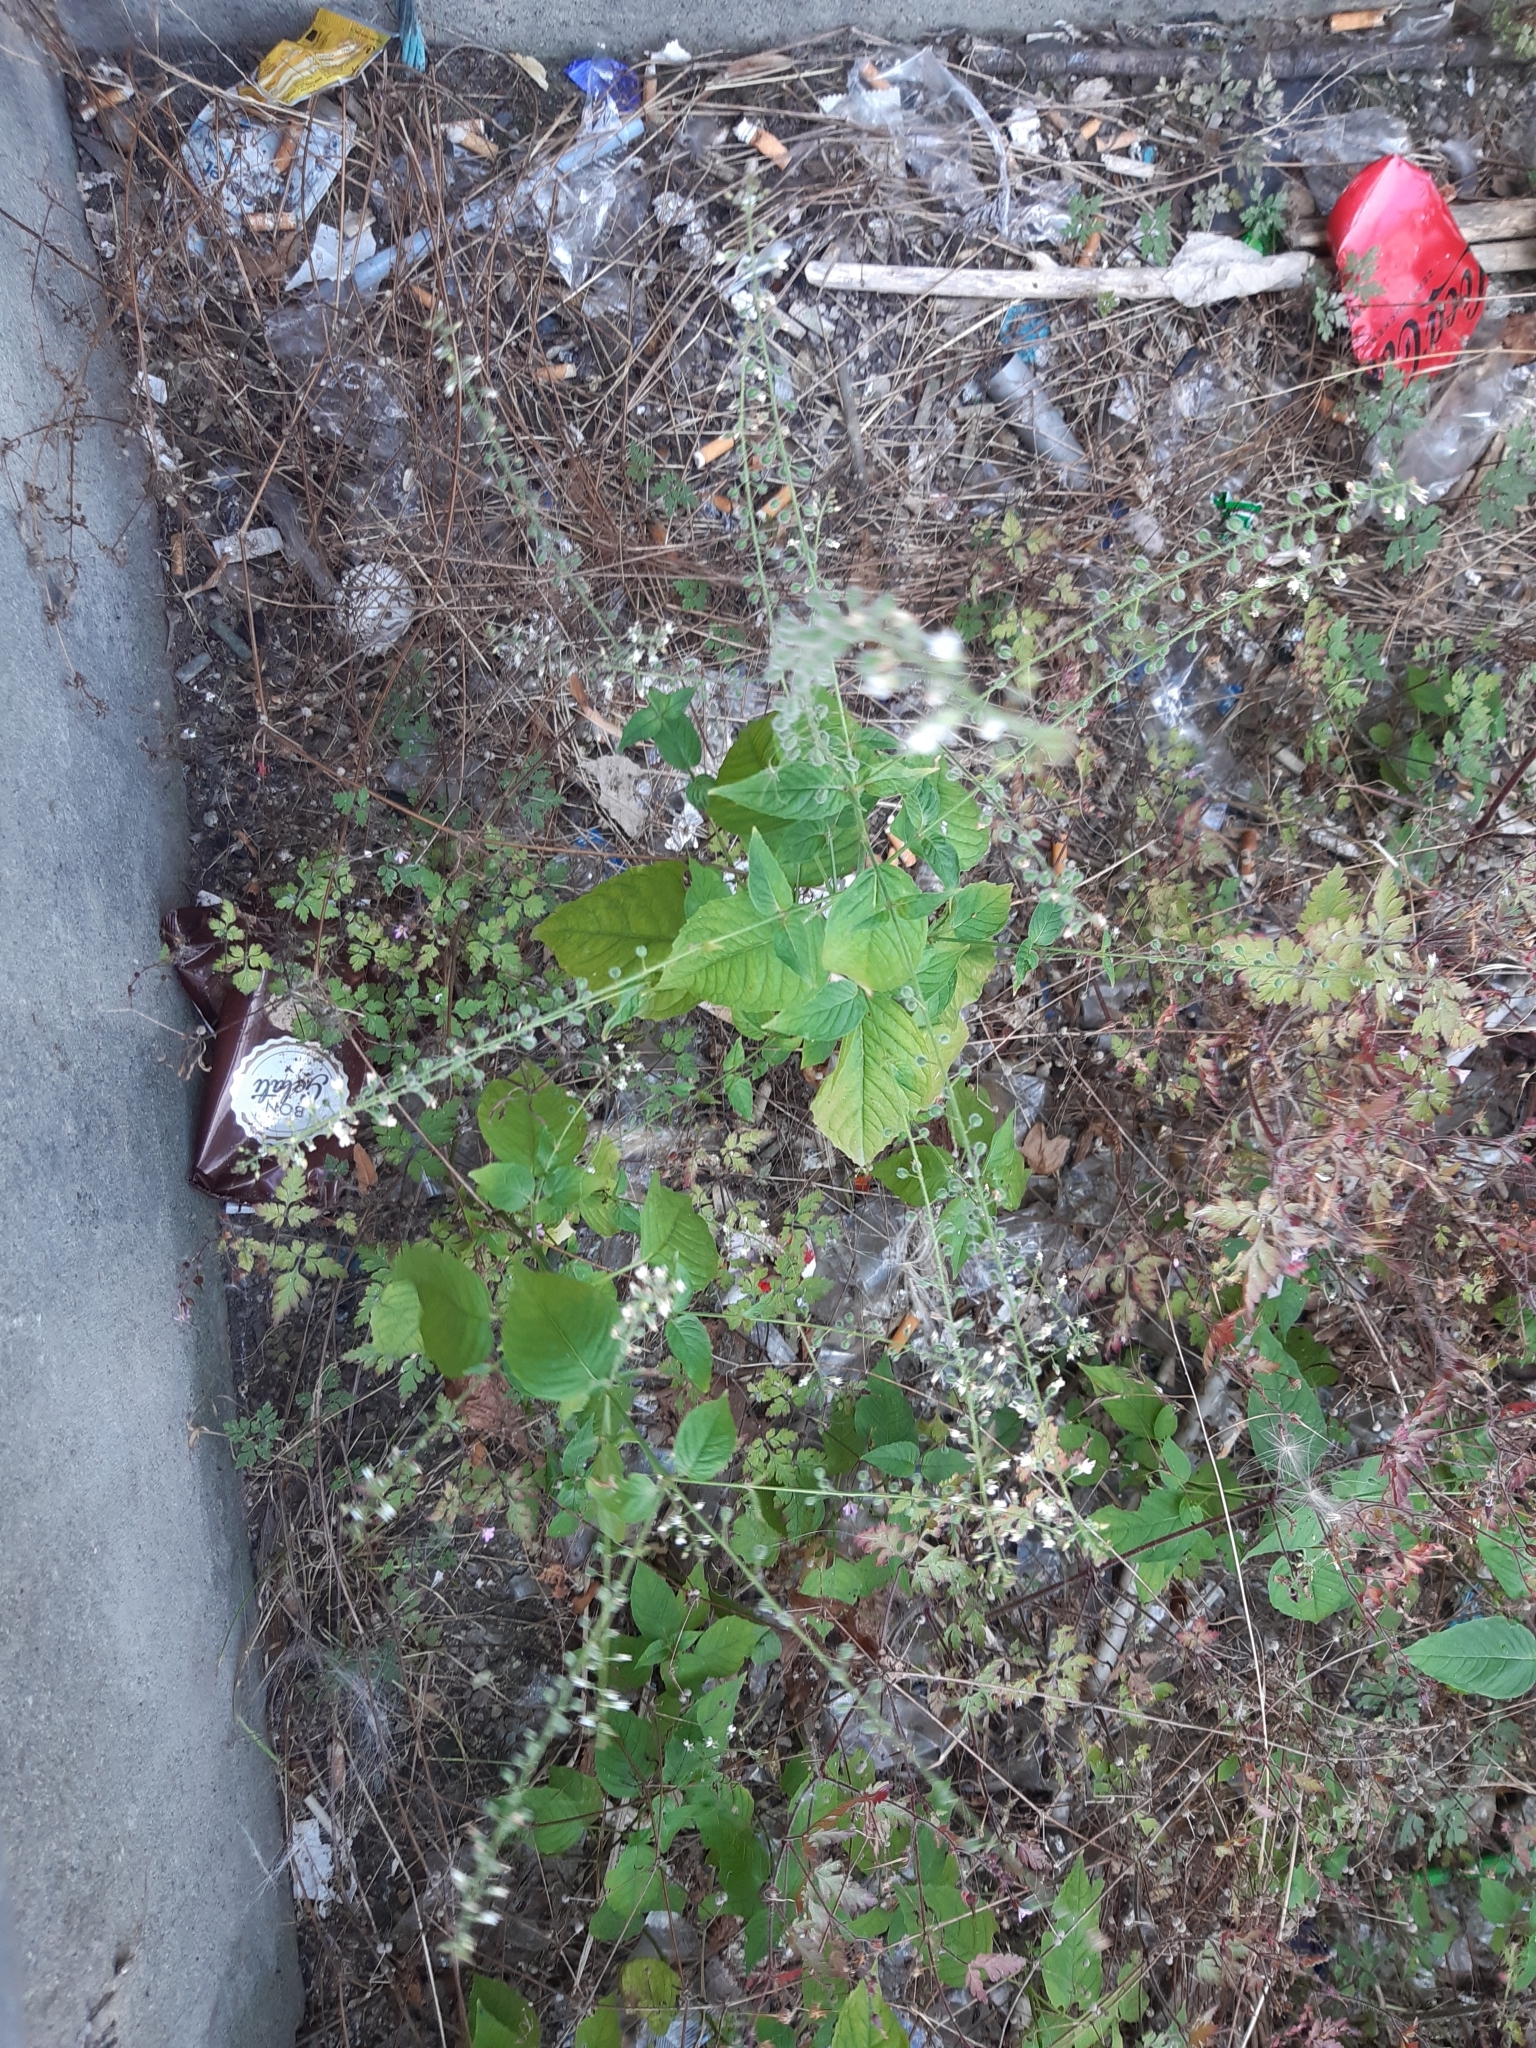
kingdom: Plantae
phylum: Tracheophyta
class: Magnoliopsida
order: Myrtales
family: Onagraceae
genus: Circaea
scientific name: Circaea lutetiana
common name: Enchanter's-nightshade
